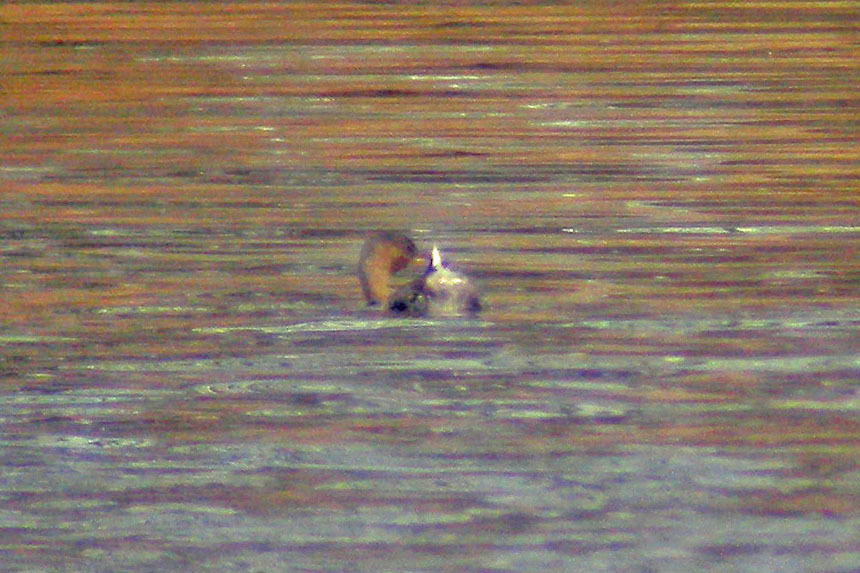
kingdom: Animalia
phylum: Chordata
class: Aves
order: Podicipediformes
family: Podicipedidae
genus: Podilymbus
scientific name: Podilymbus podiceps
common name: Pied-billed grebe
